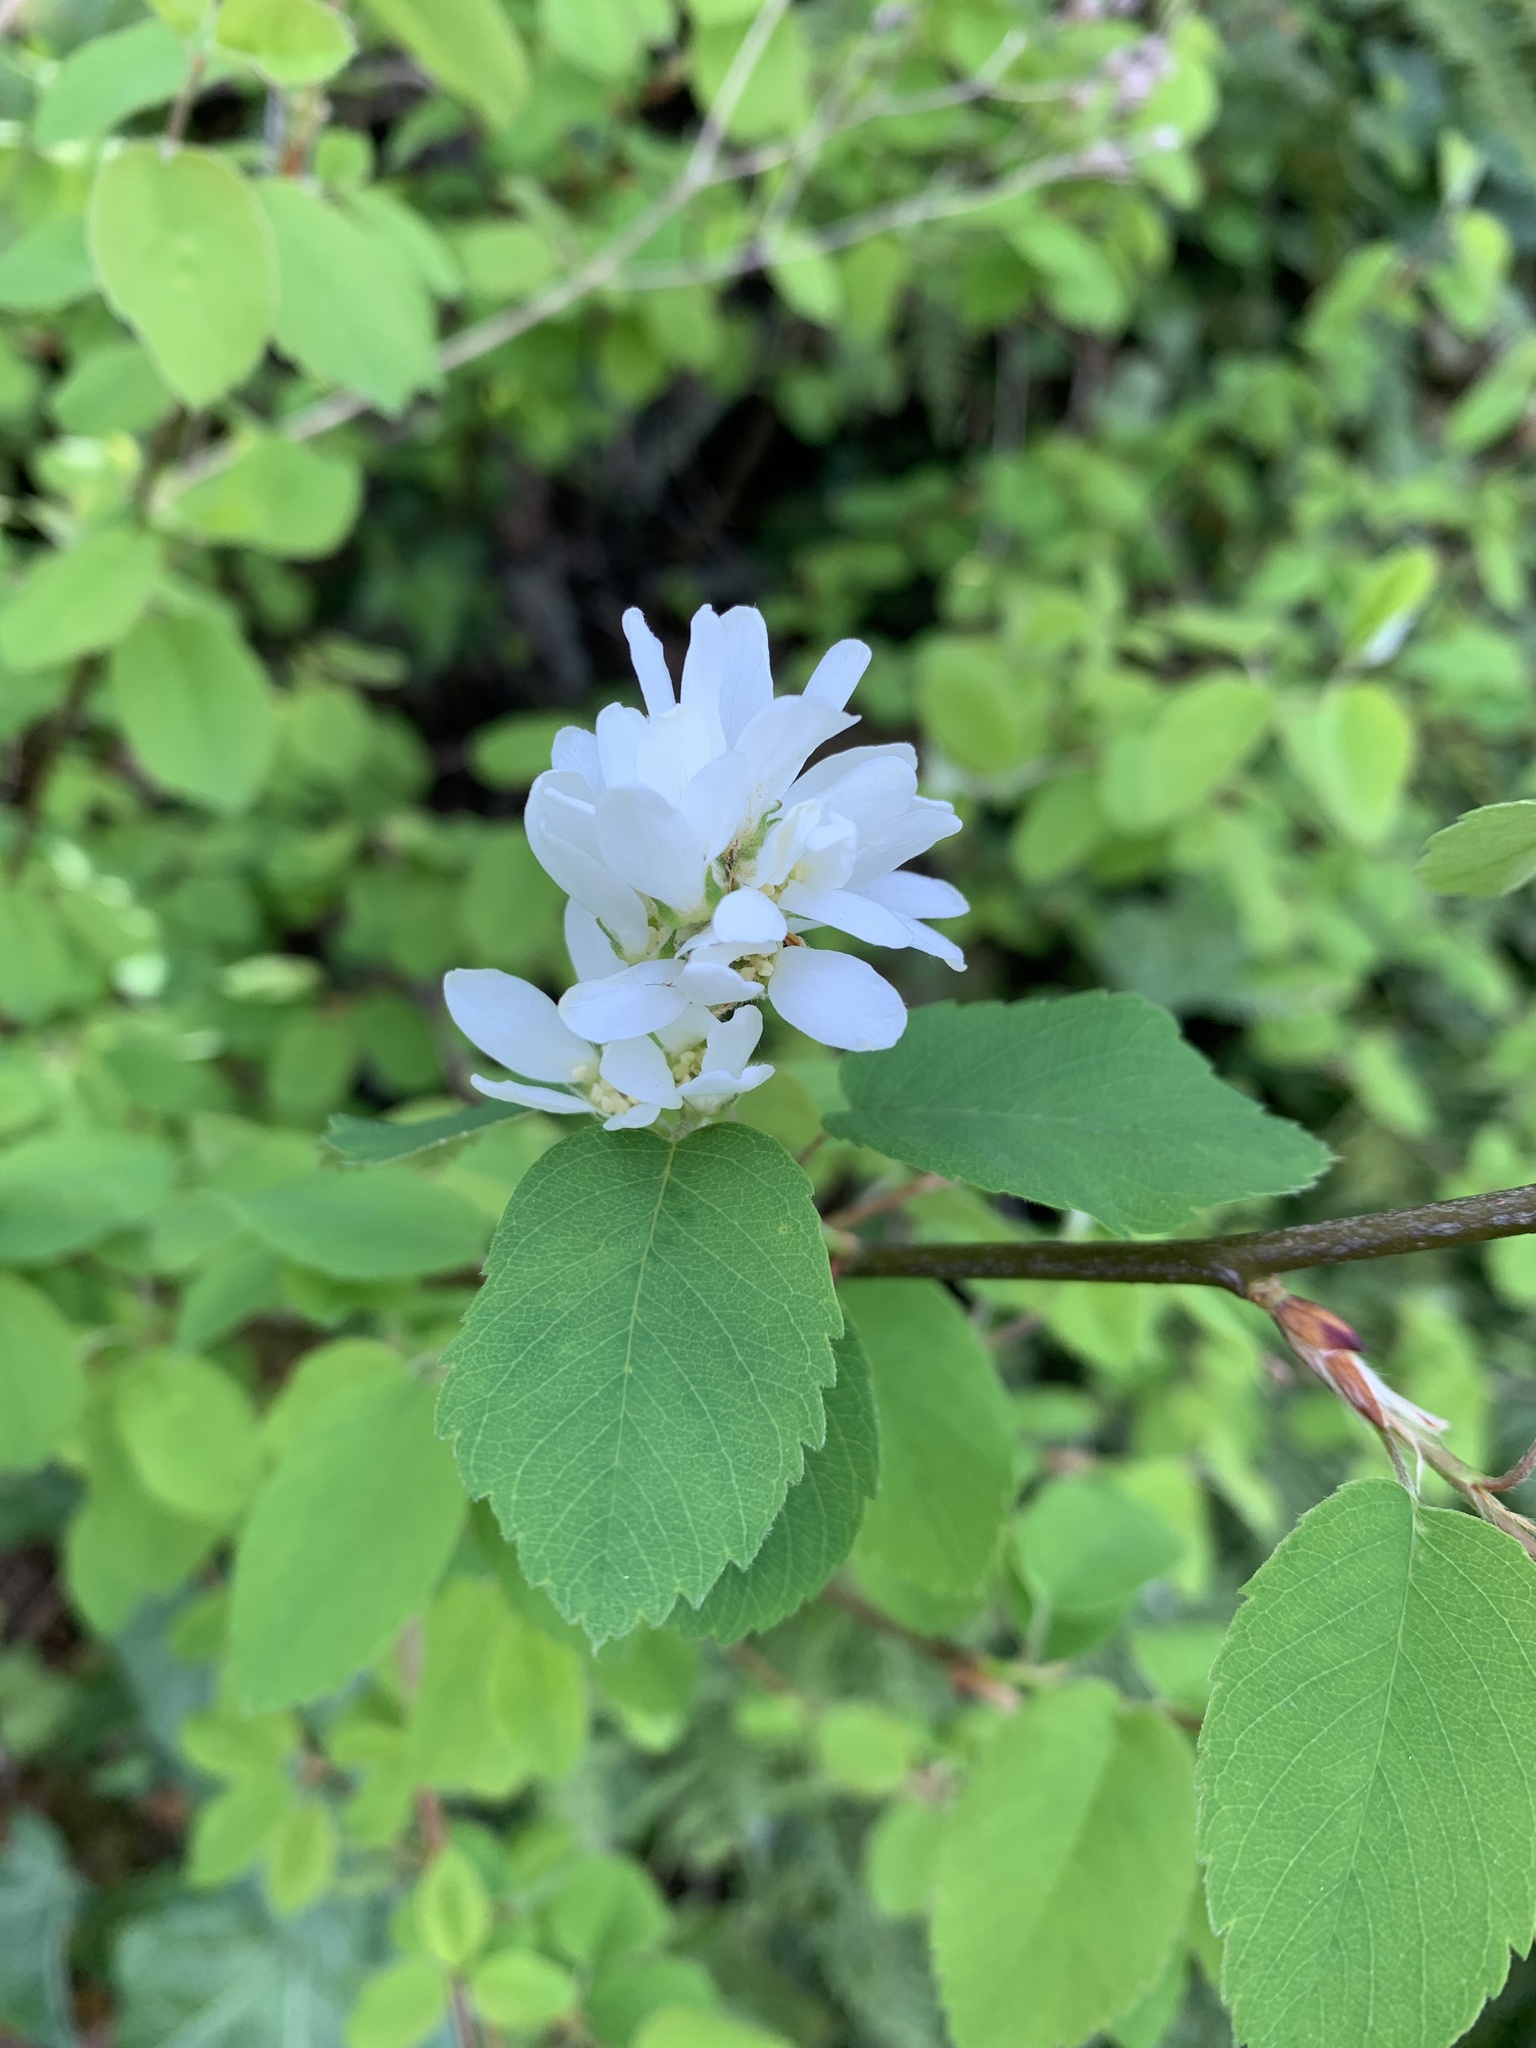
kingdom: Plantae
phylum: Tracheophyta
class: Magnoliopsida
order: Rosales
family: Rosaceae
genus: Amelanchier
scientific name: Amelanchier alnifolia
